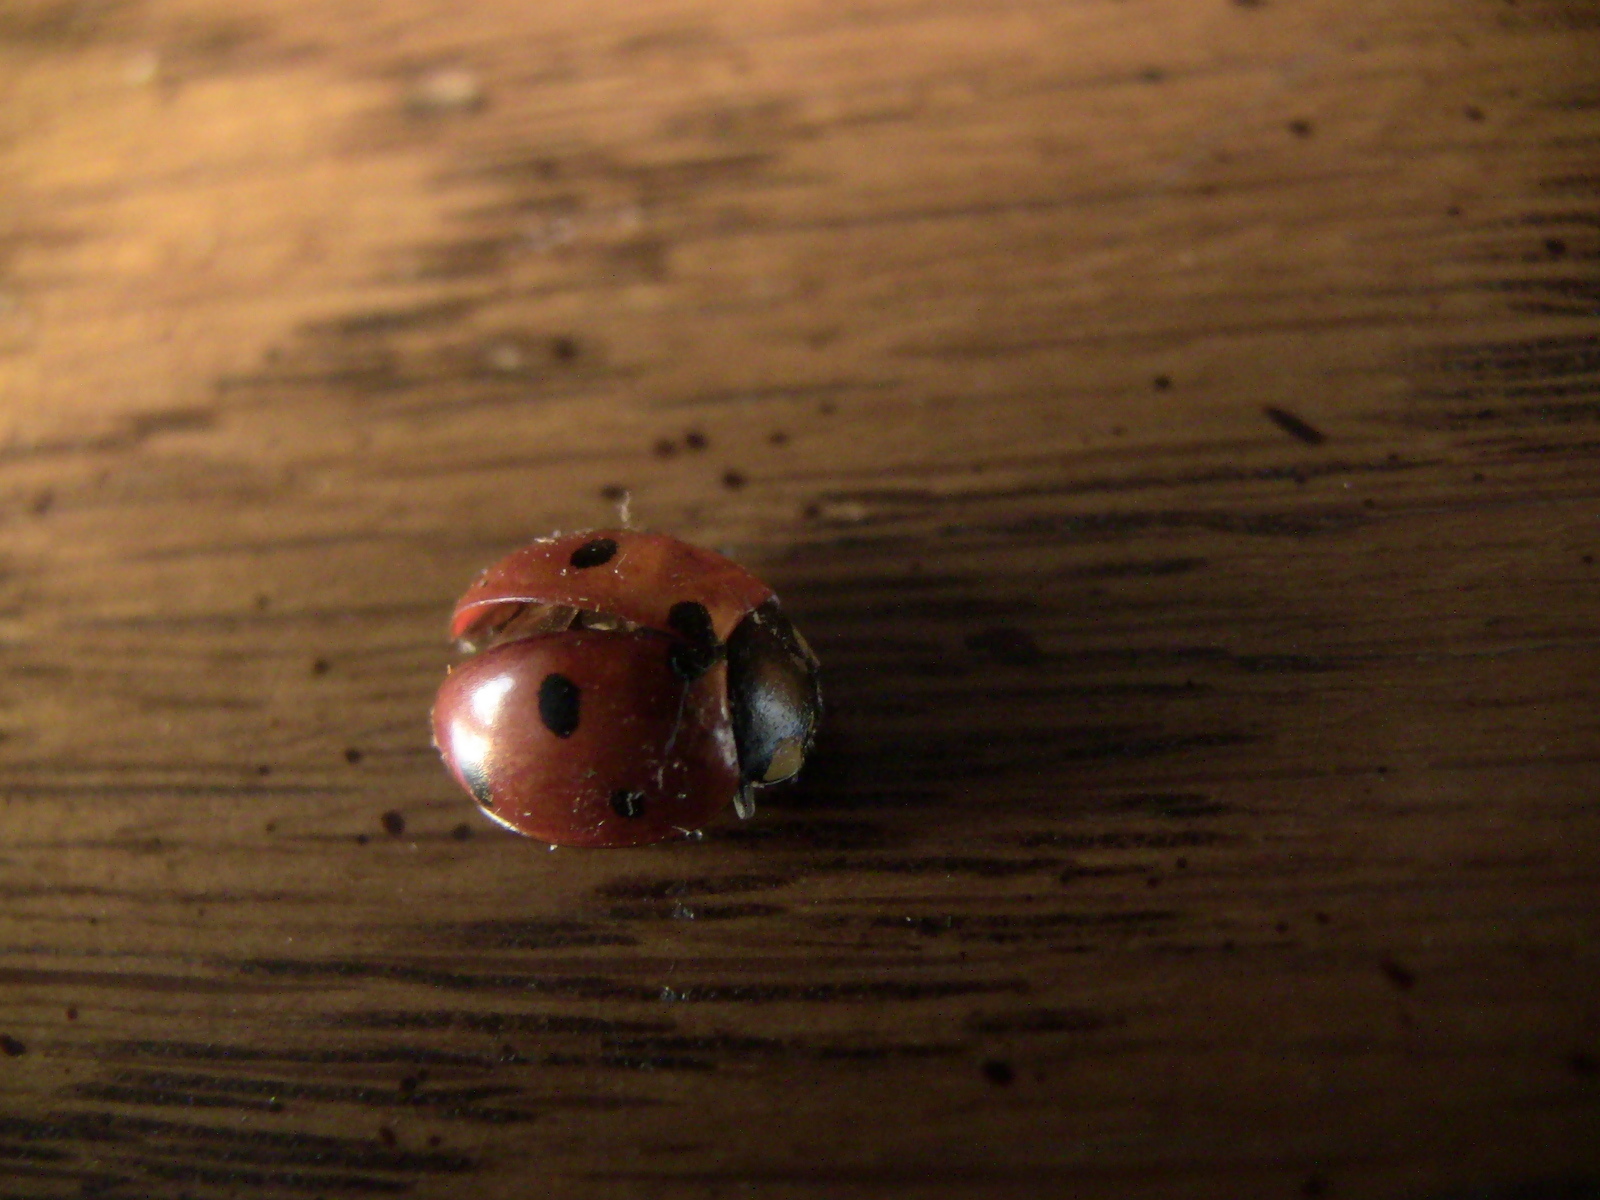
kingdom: Animalia
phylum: Arthropoda
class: Insecta
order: Coleoptera
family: Coccinellidae
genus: Coccinella
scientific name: Coccinella septempunctata
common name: Sevenspotted lady beetle
